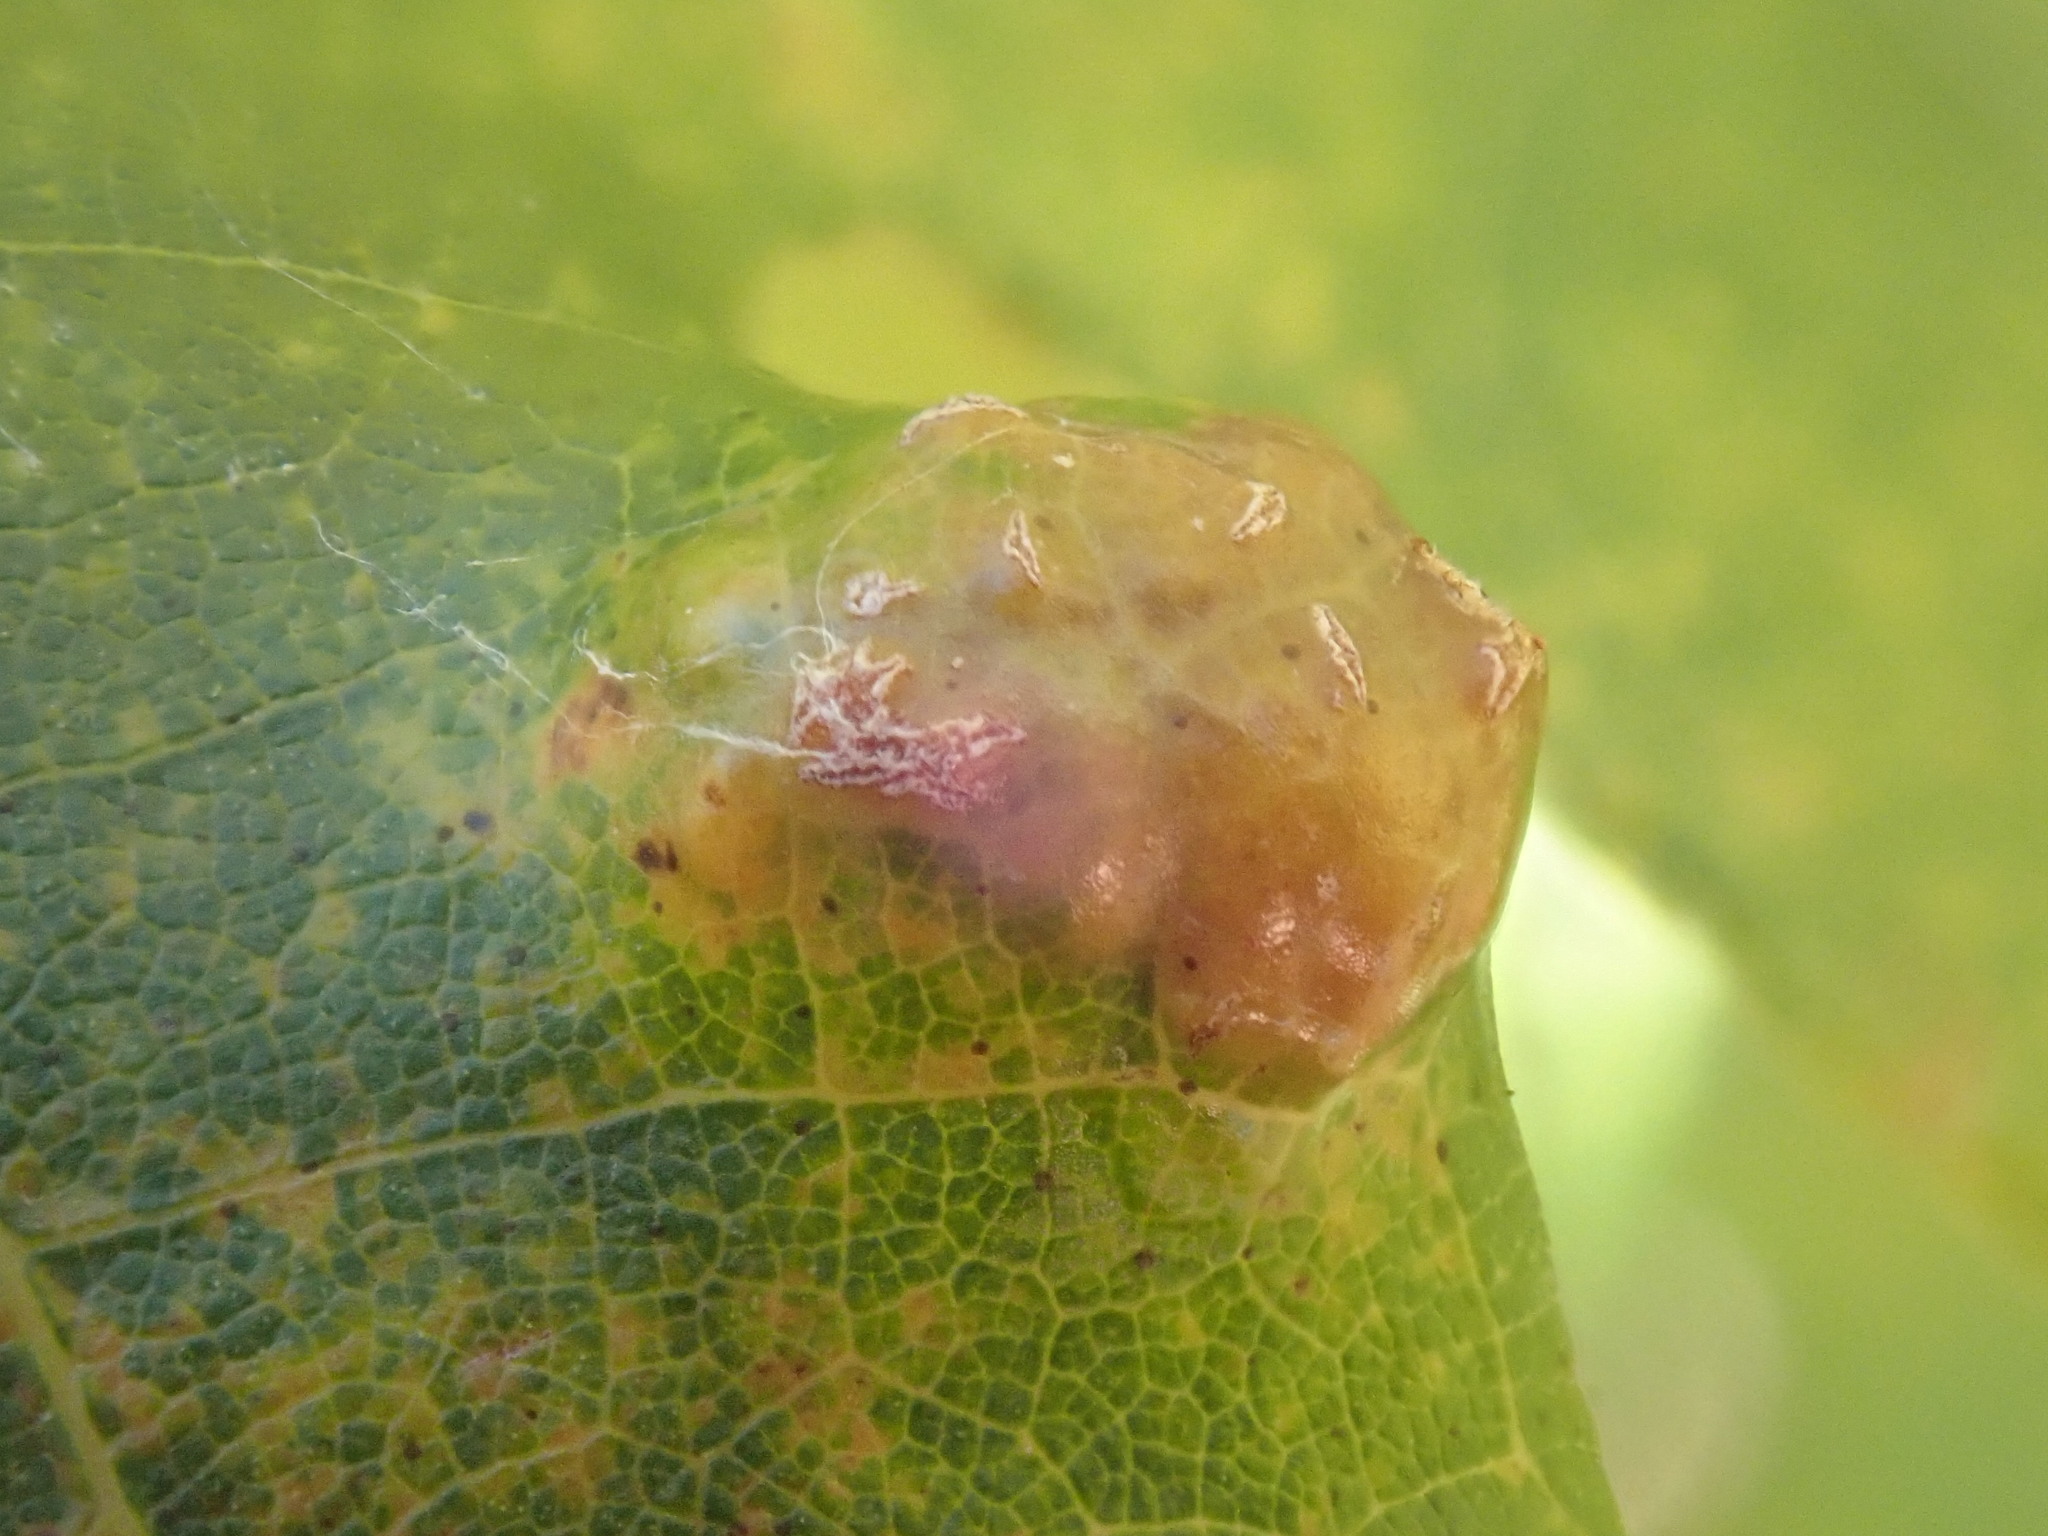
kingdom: Animalia
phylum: Arthropoda
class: Arachnida
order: Trombidiformes
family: Eriophyidae
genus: Aceria
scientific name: Aceria
